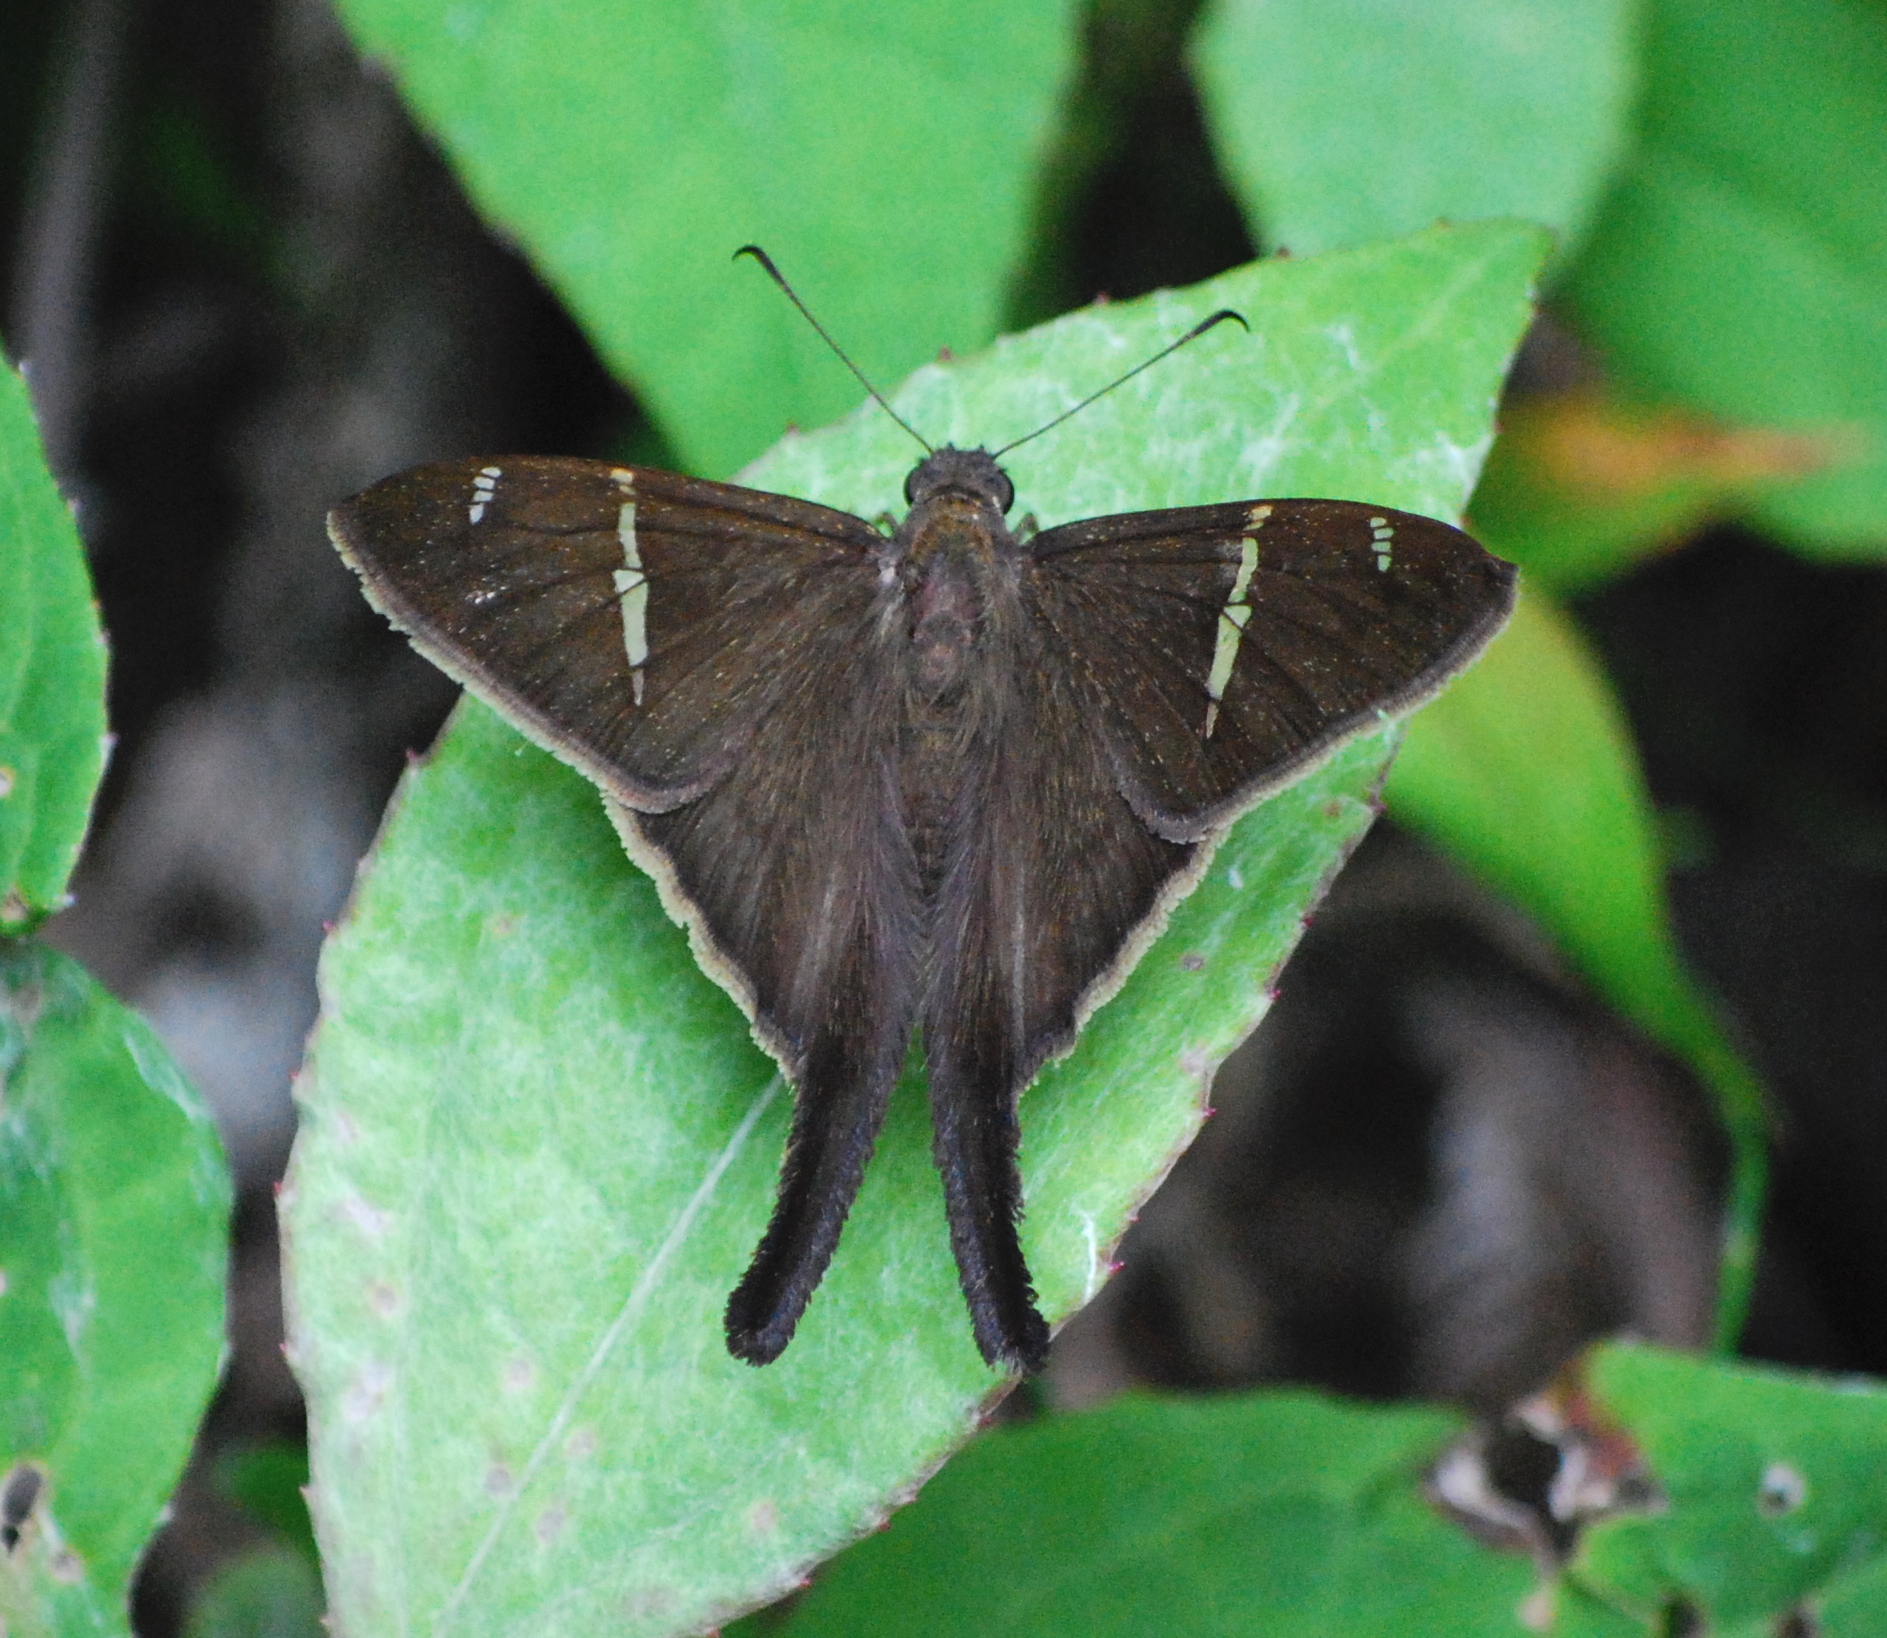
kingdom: Animalia
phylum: Arthropoda
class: Insecta
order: Lepidoptera
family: Hesperiidae
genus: Urbanus
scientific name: Urbanus teleus
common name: Teleus longtail
